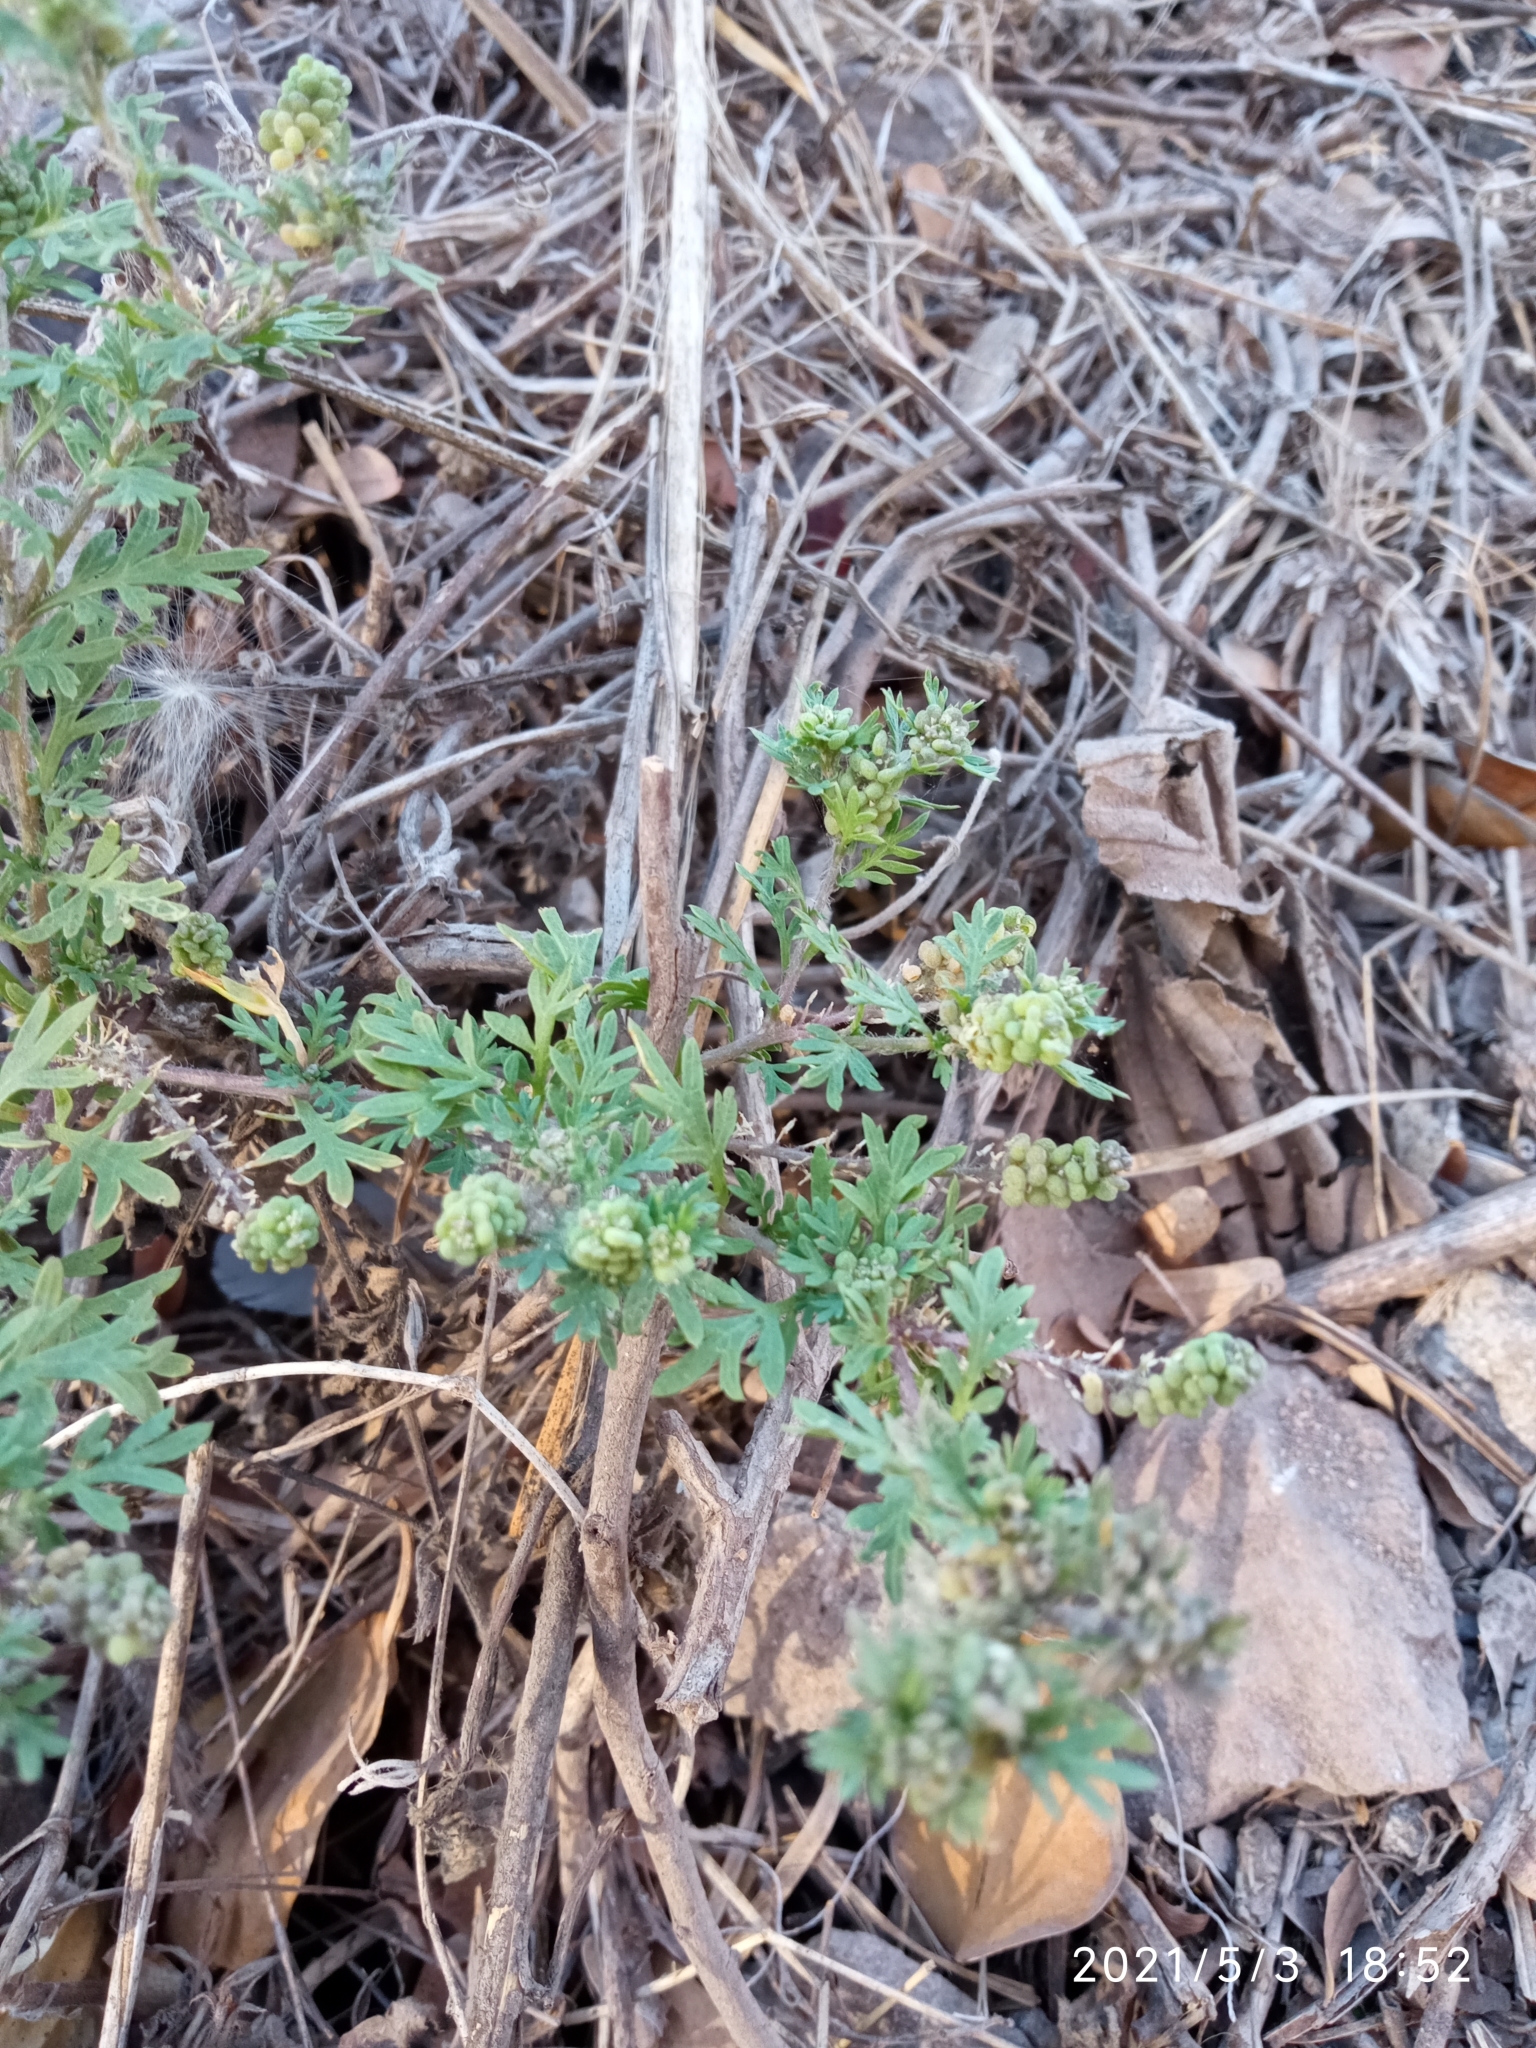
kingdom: Plantae
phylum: Tracheophyta
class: Magnoliopsida
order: Brassicales
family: Brassicaceae
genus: Lepidium
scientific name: Lepidium didymum
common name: Lesser swinecress
